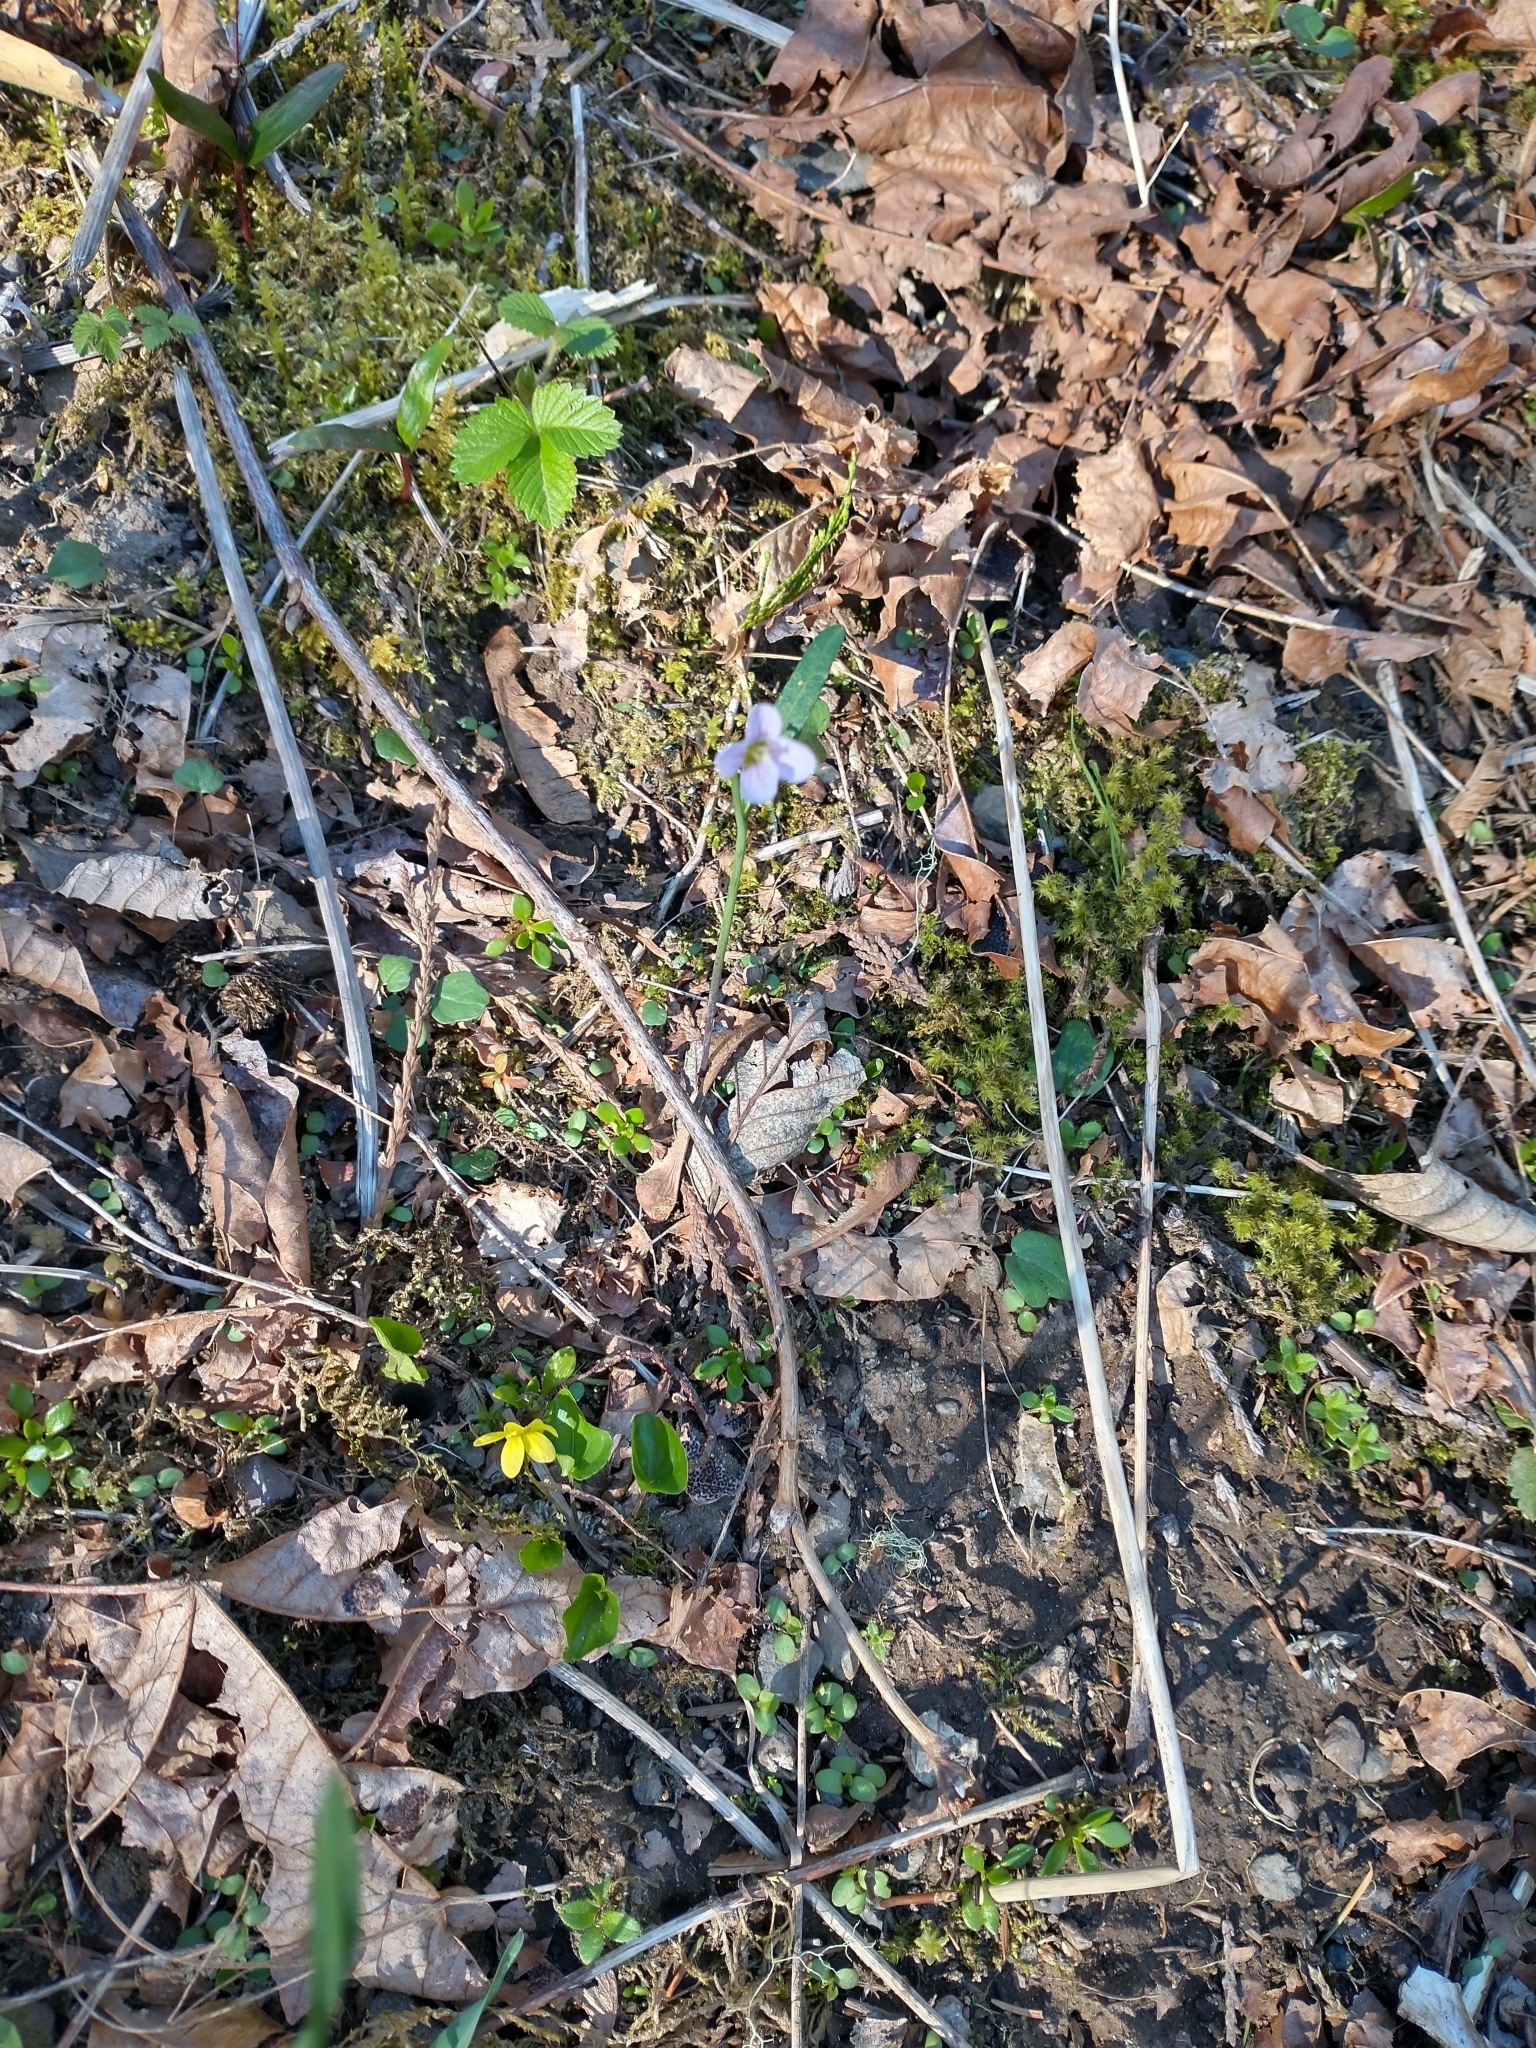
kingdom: Plantae
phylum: Tracheophyta
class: Magnoliopsida
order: Brassicales
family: Brassicaceae
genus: Cardamine
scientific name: Cardamine nuttallii
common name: Nuttall's toothwort
